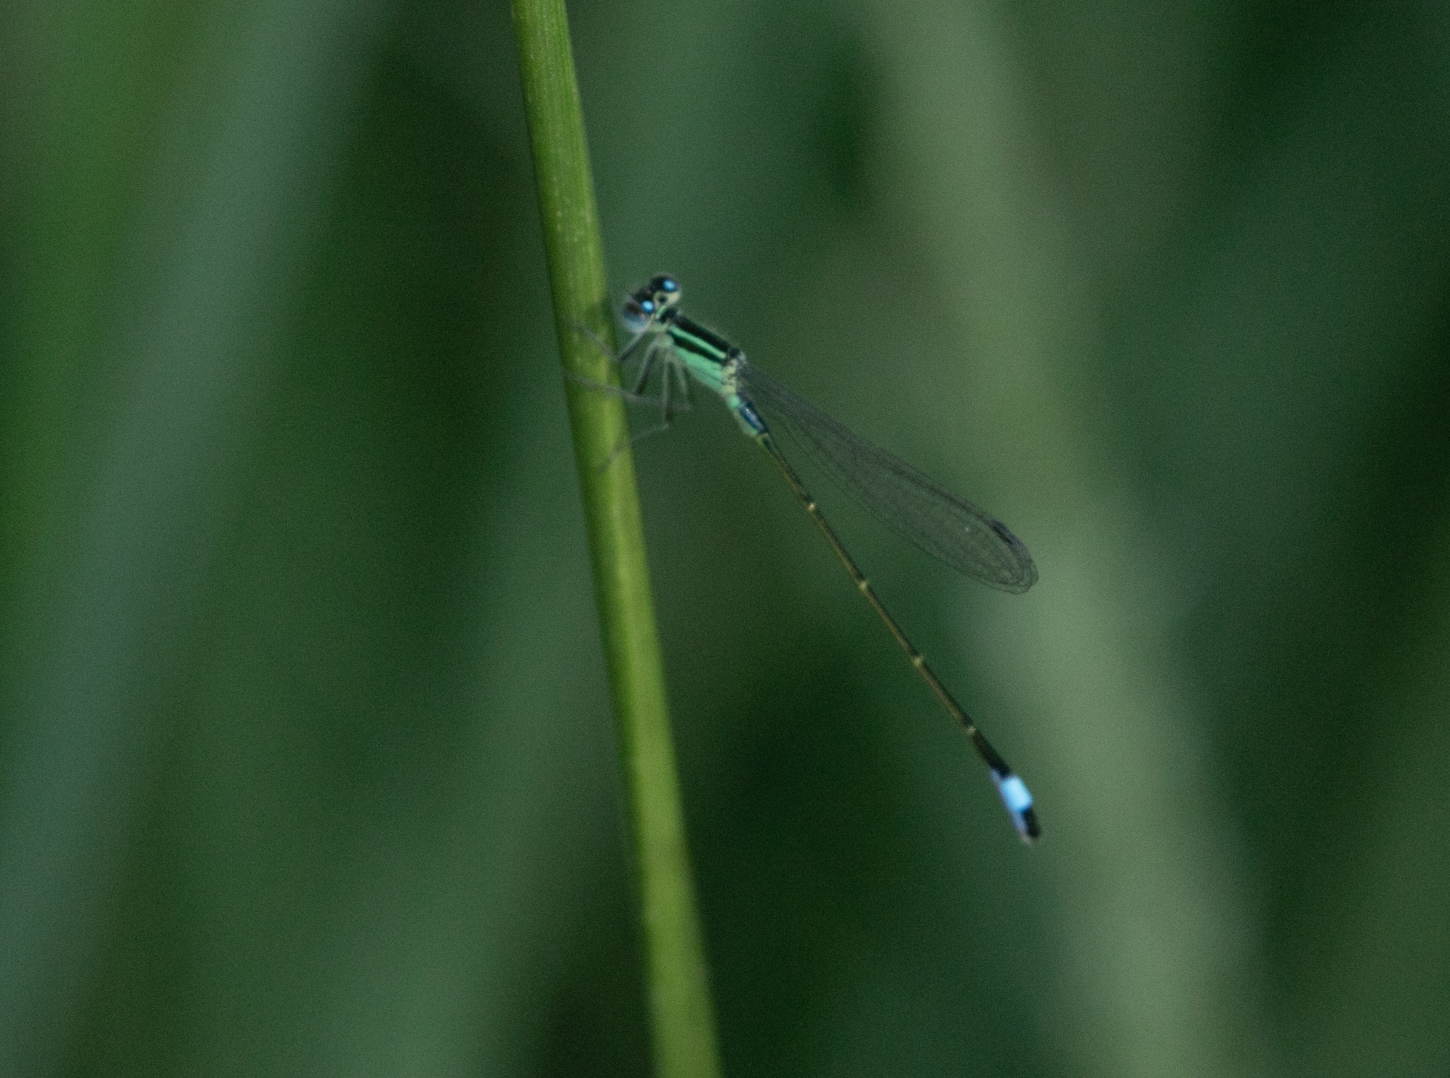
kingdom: Animalia
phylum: Arthropoda
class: Insecta
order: Odonata
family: Coenagrionidae
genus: Ischnura
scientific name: Ischnura elegans
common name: Blue-tailed damselfly
